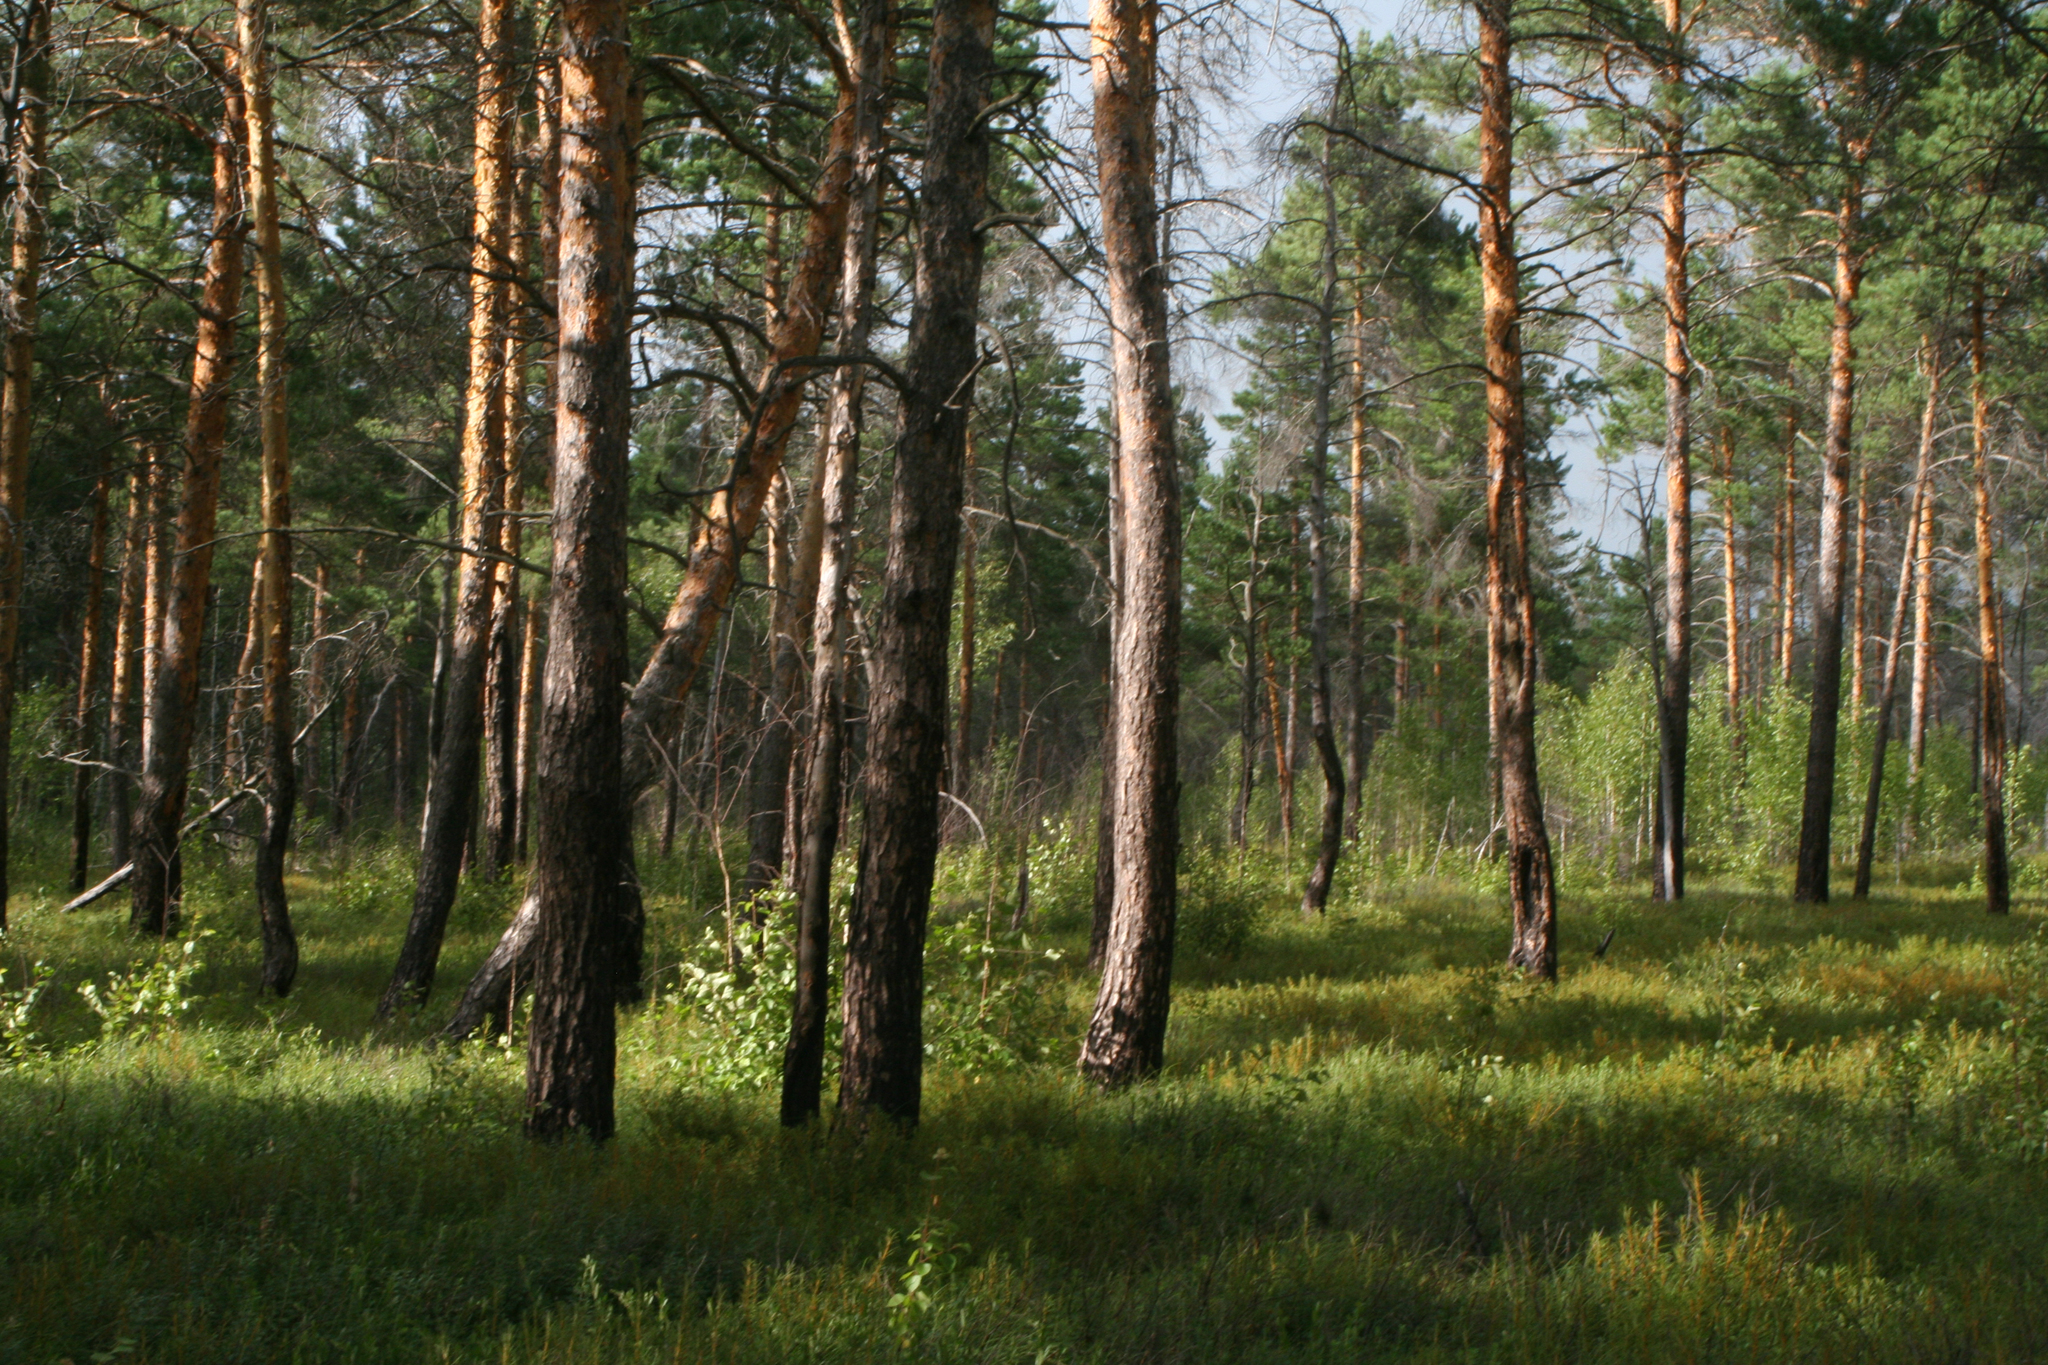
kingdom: Plantae
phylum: Tracheophyta
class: Pinopsida
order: Pinales
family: Pinaceae
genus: Pinus
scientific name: Pinus sylvestris
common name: Scots pine
